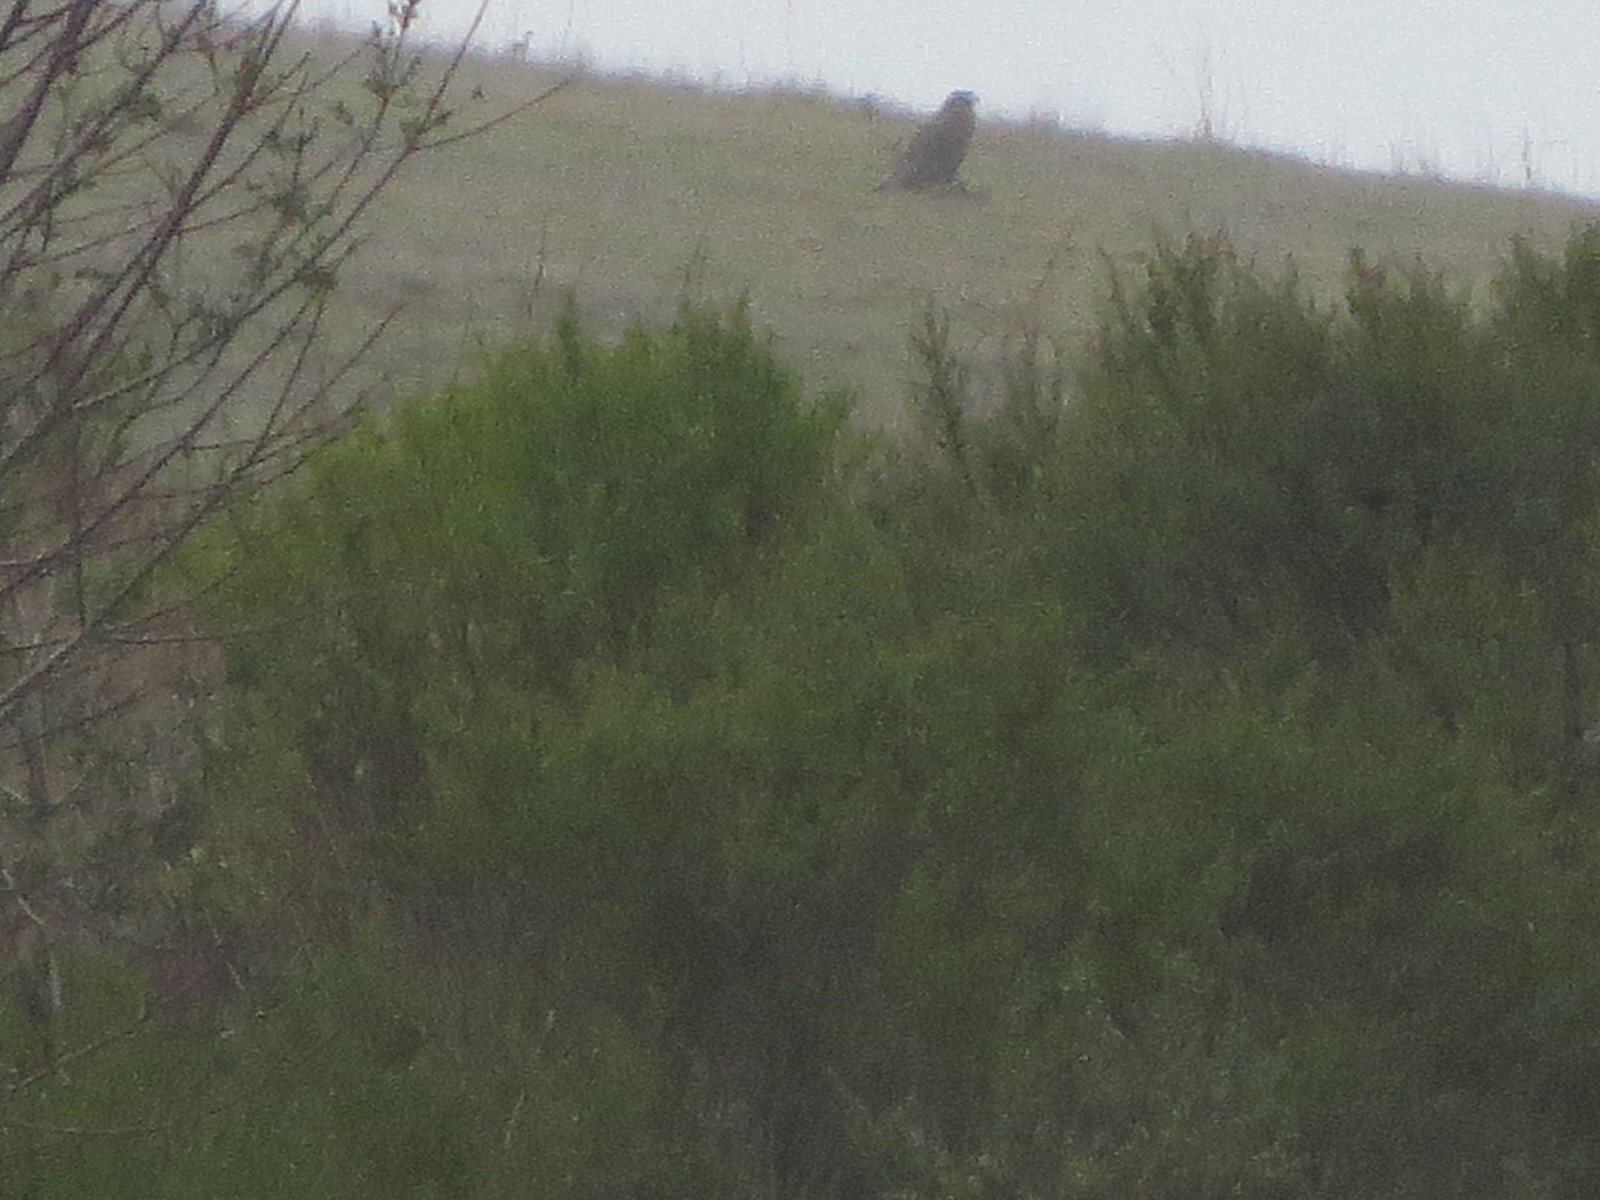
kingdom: Animalia
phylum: Chordata
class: Aves
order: Accipitriformes
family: Accipitridae
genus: Buteo
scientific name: Buteo regalis
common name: Ferruginous hawk
